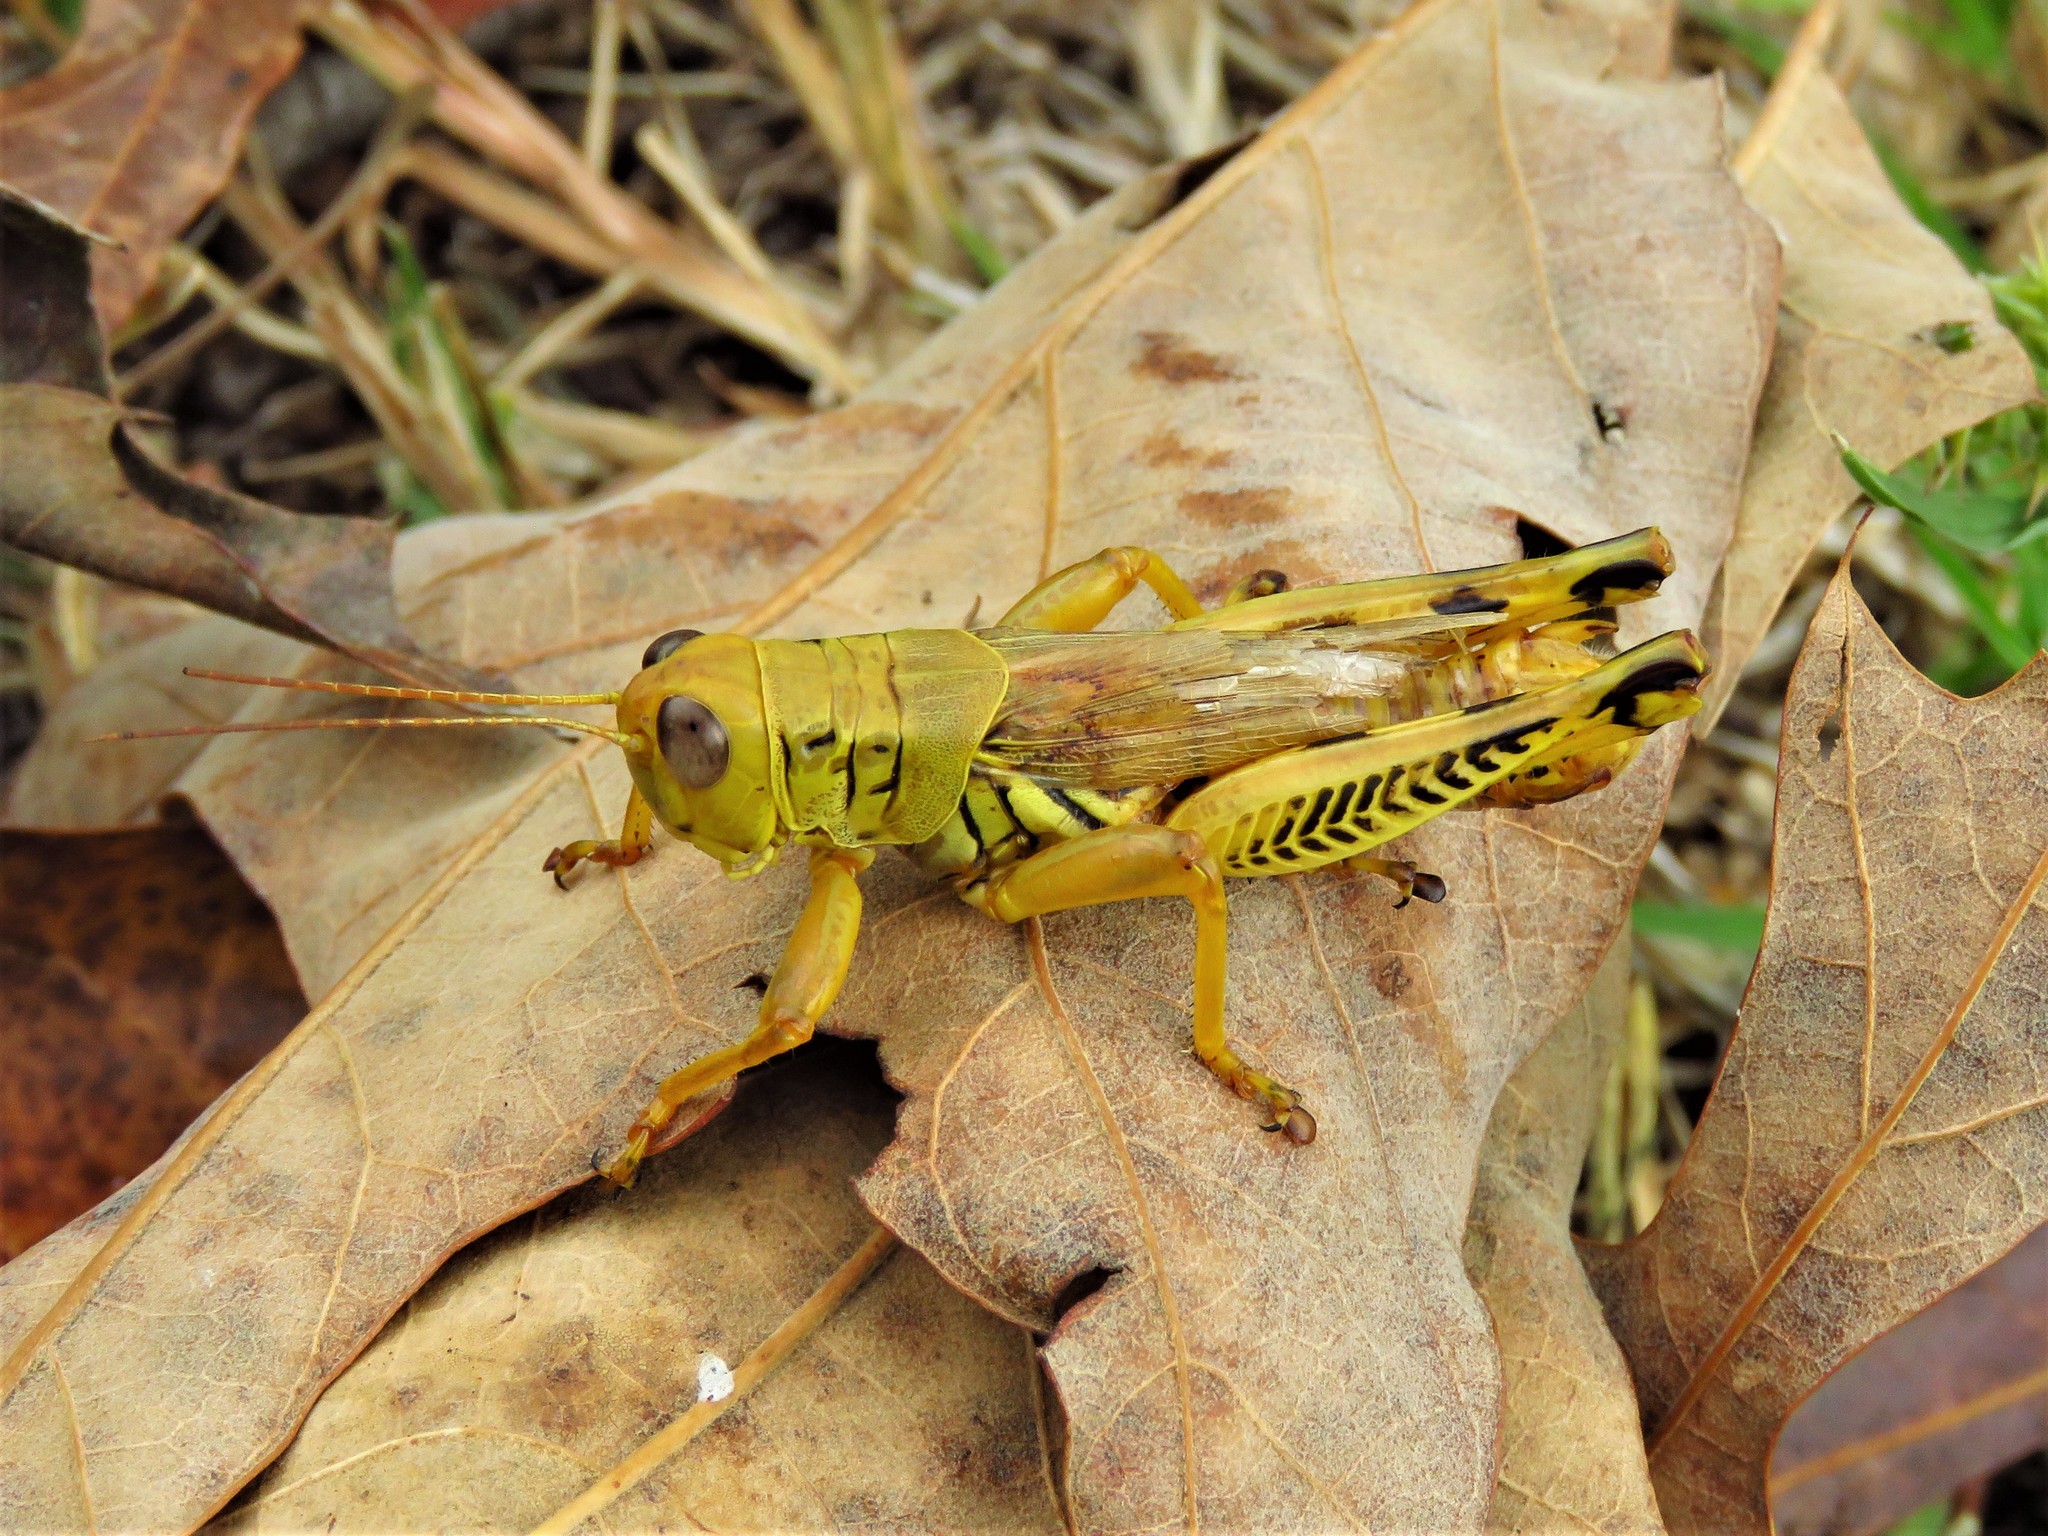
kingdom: Animalia
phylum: Arthropoda
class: Insecta
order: Orthoptera
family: Acrididae
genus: Melanoplus
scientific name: Melanoplus differentialis
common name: Differential grasshopper
